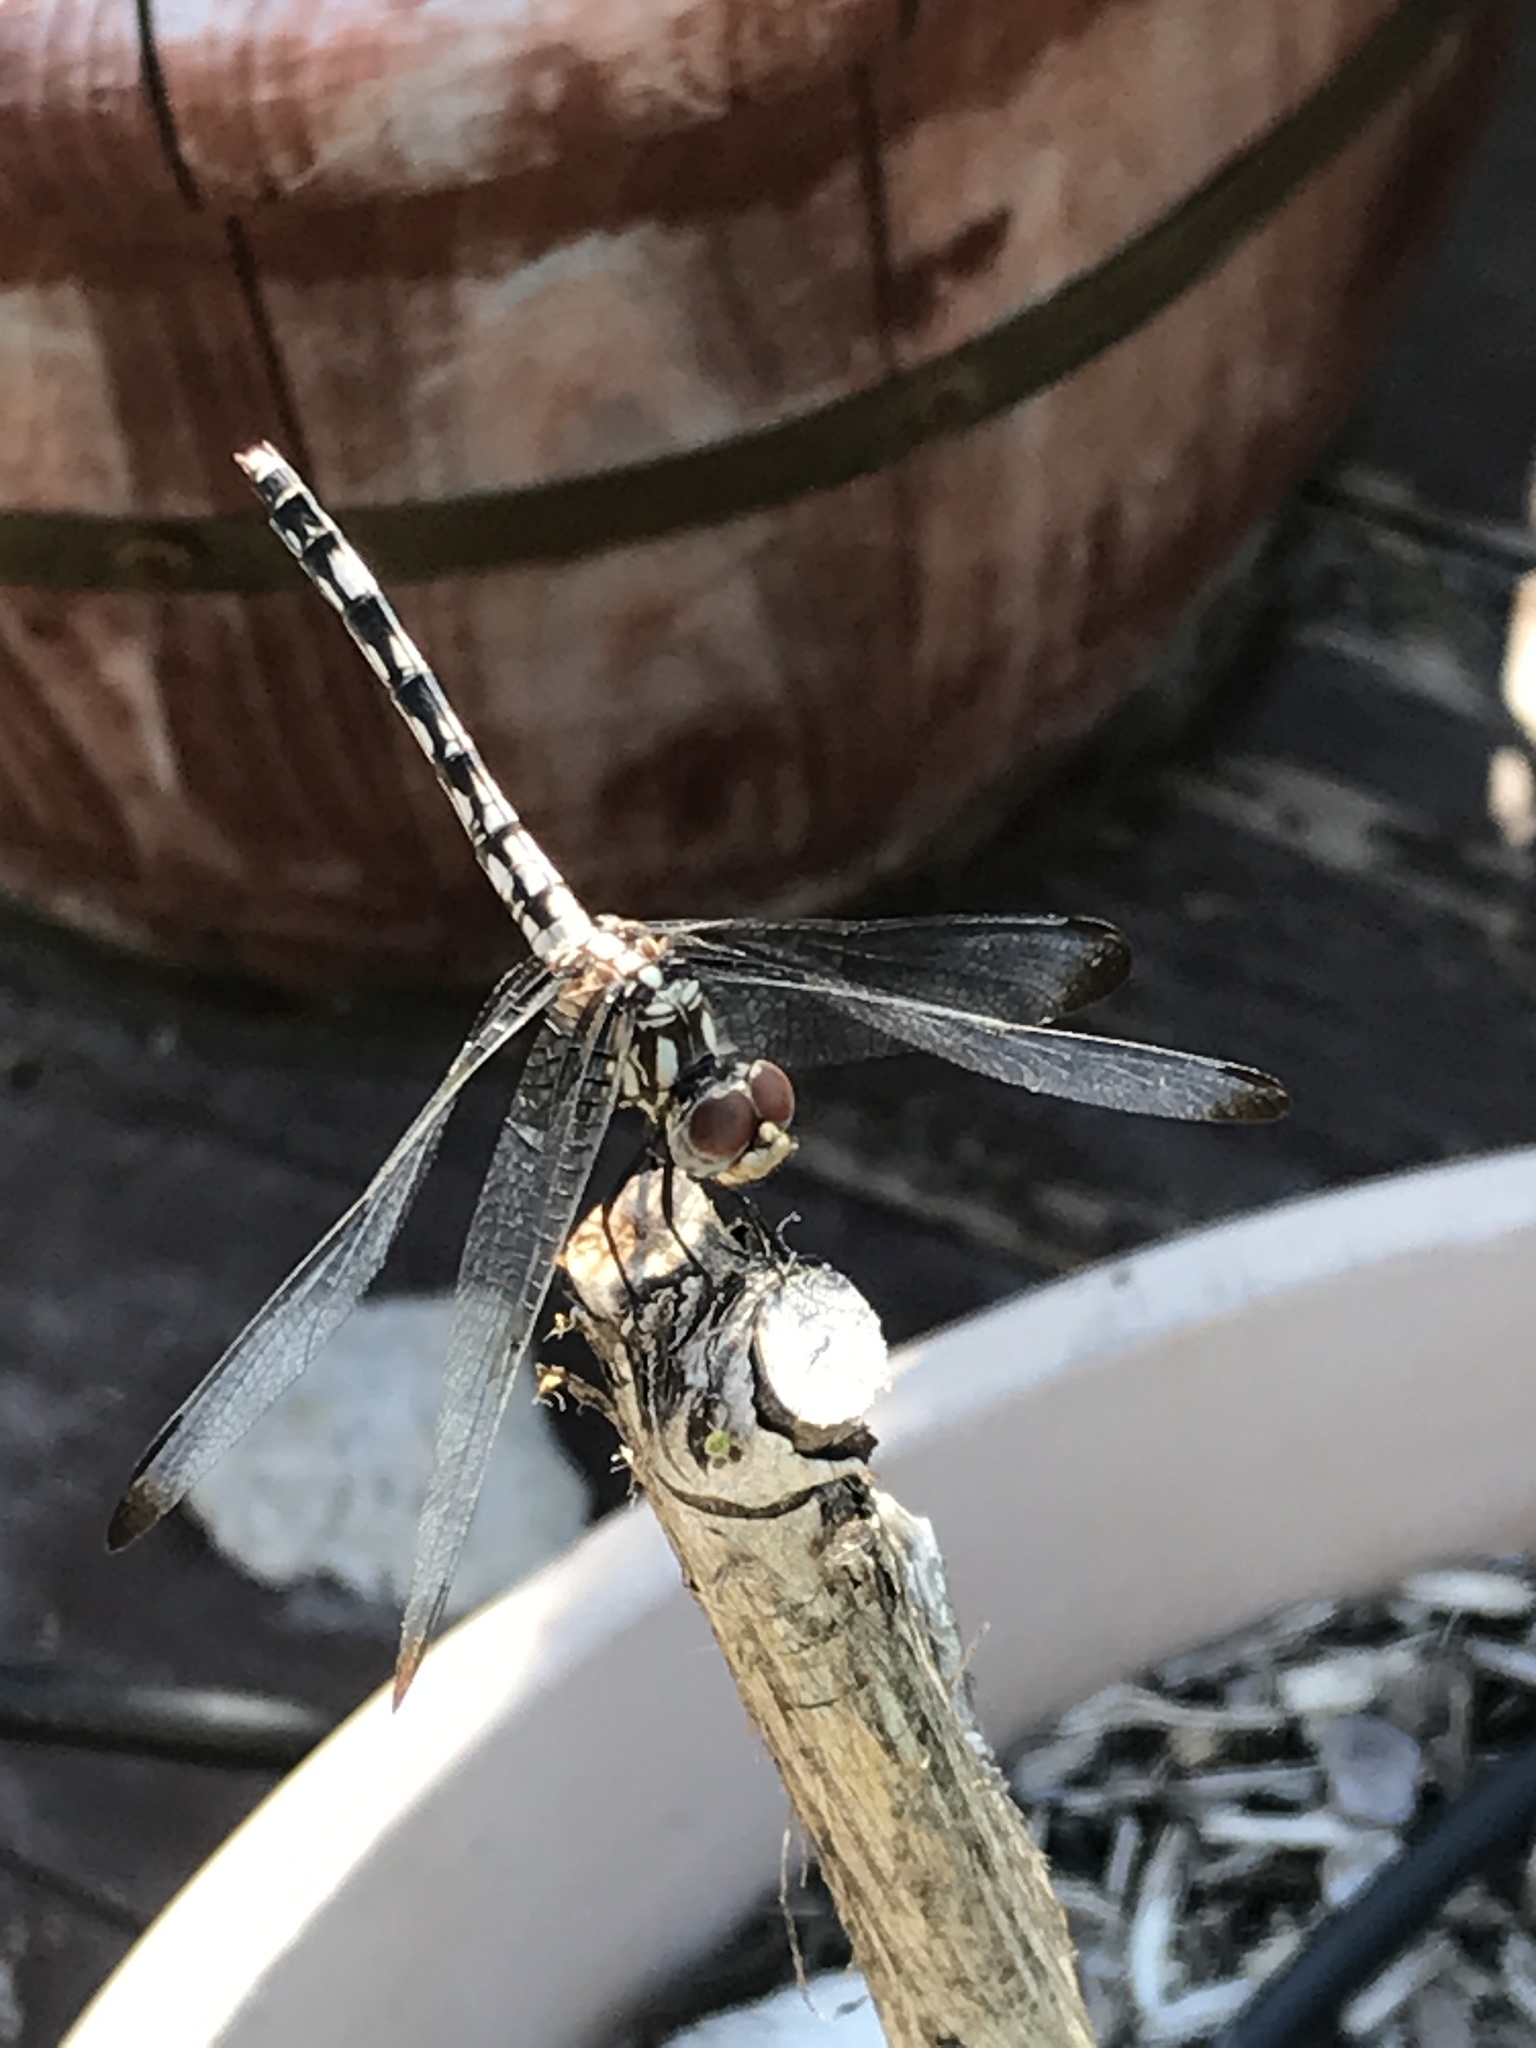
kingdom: Animalia
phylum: Arthropoda
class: Insecta
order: Odonata
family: Libellulidae
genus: Dythemis
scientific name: Dythemis fugax
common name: Checkered setwing
